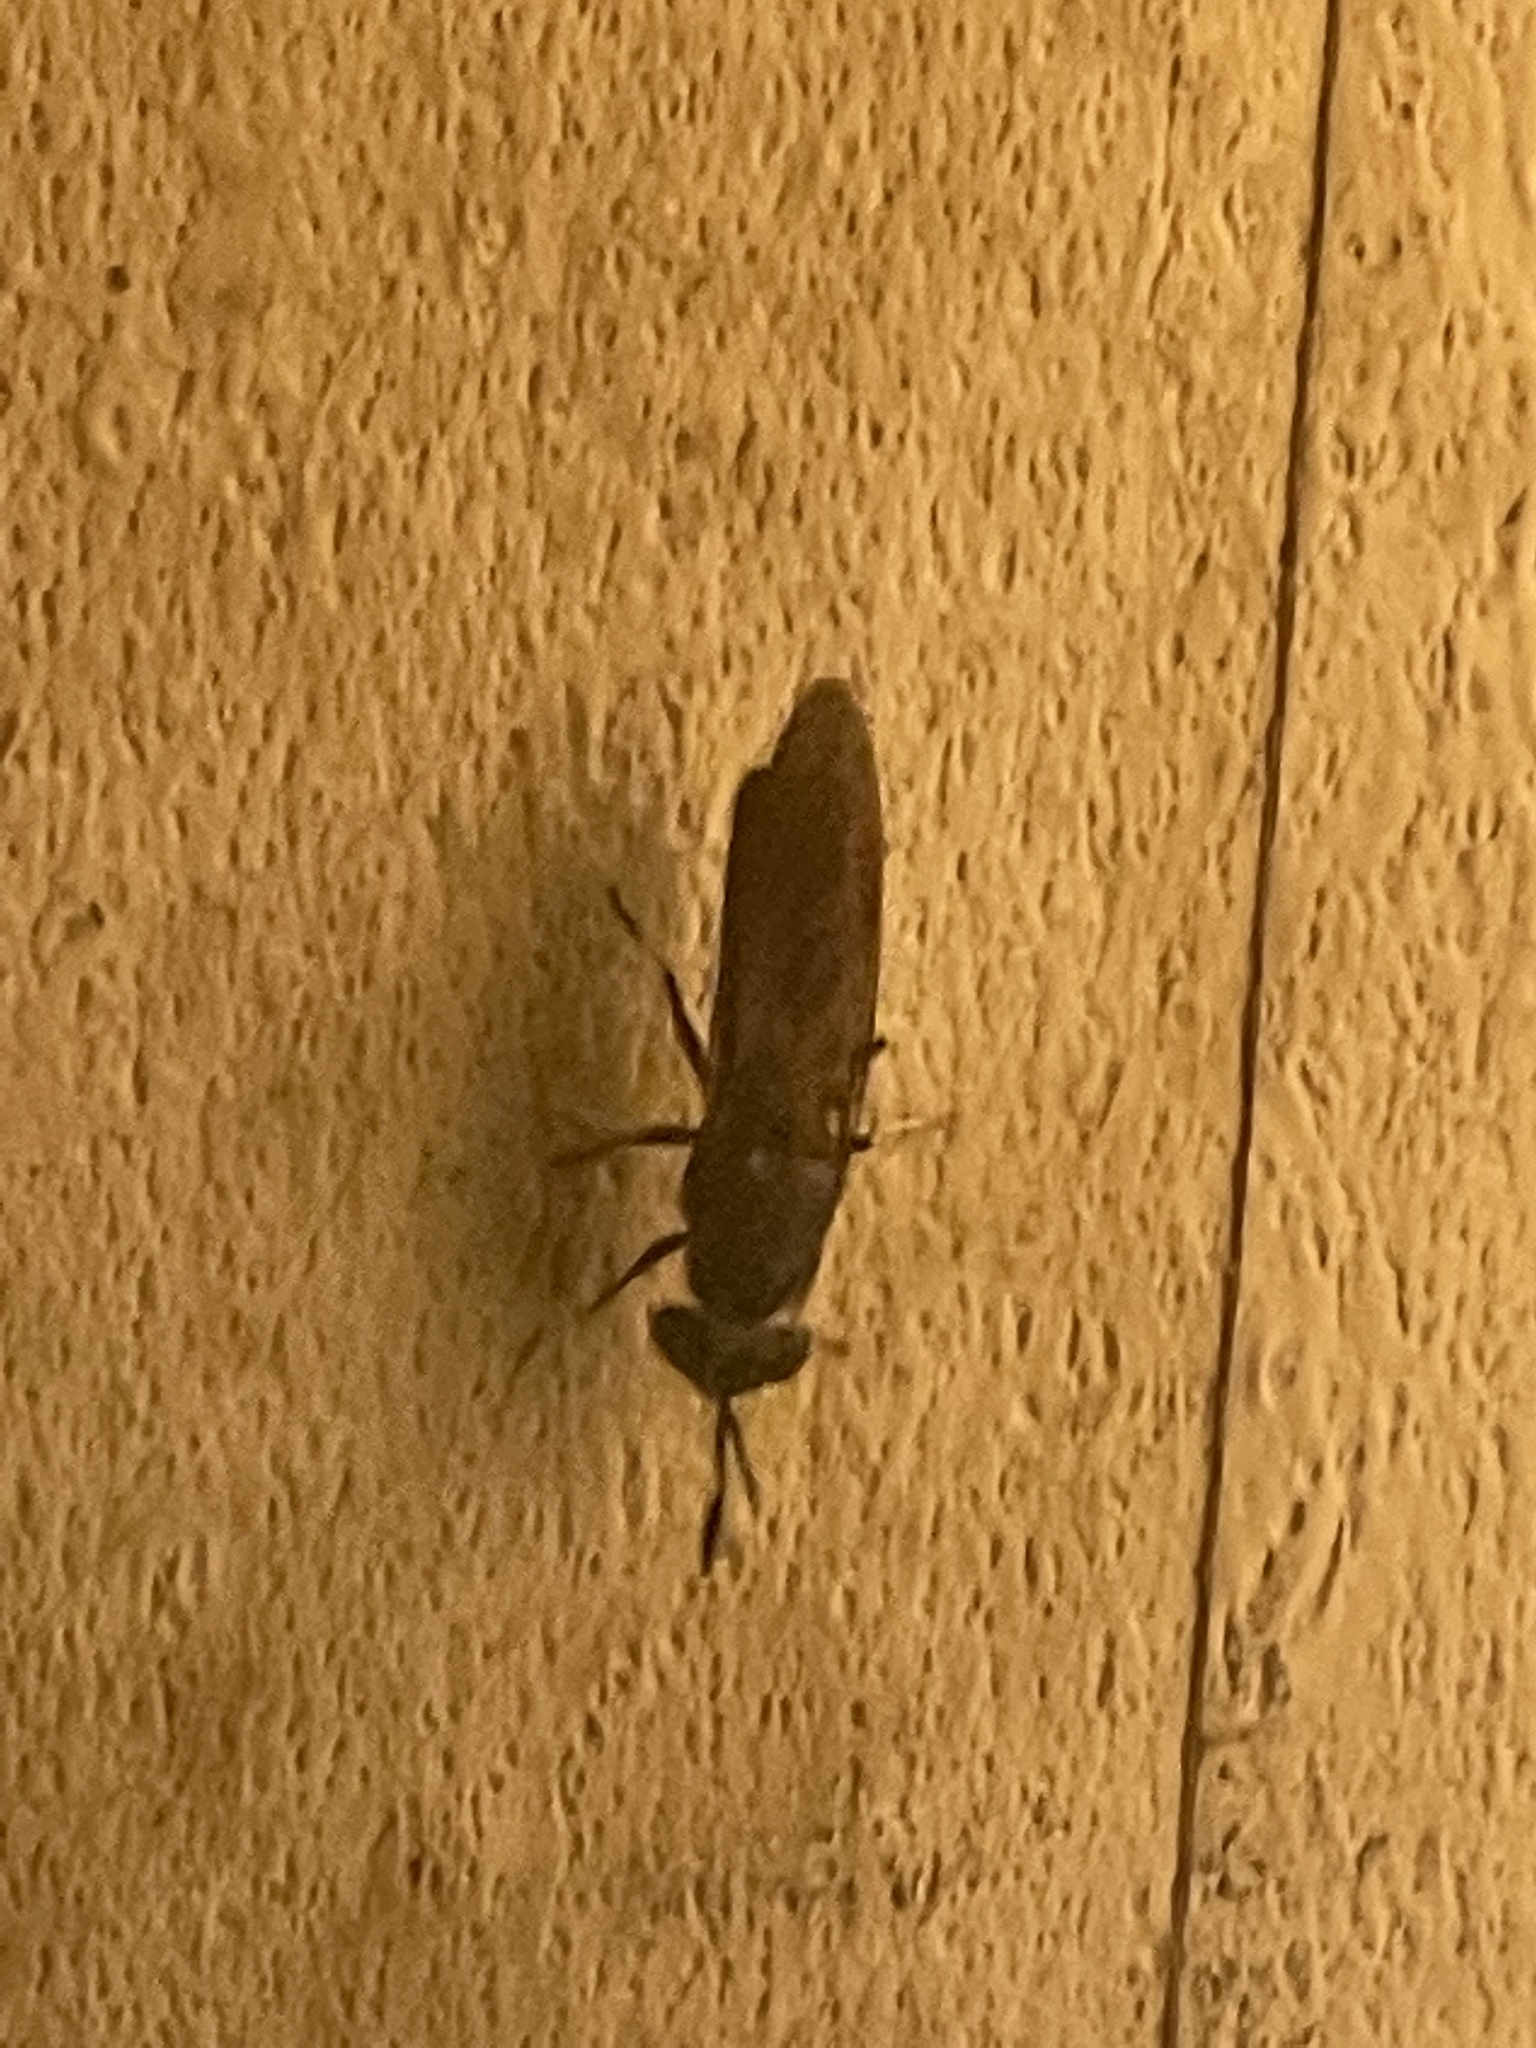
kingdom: Animalia
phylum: Arthropoda
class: Insecta
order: Diptera
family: Stratiomyidae
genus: Hermetia
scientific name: Hermetia illucens
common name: Black soldier fly
